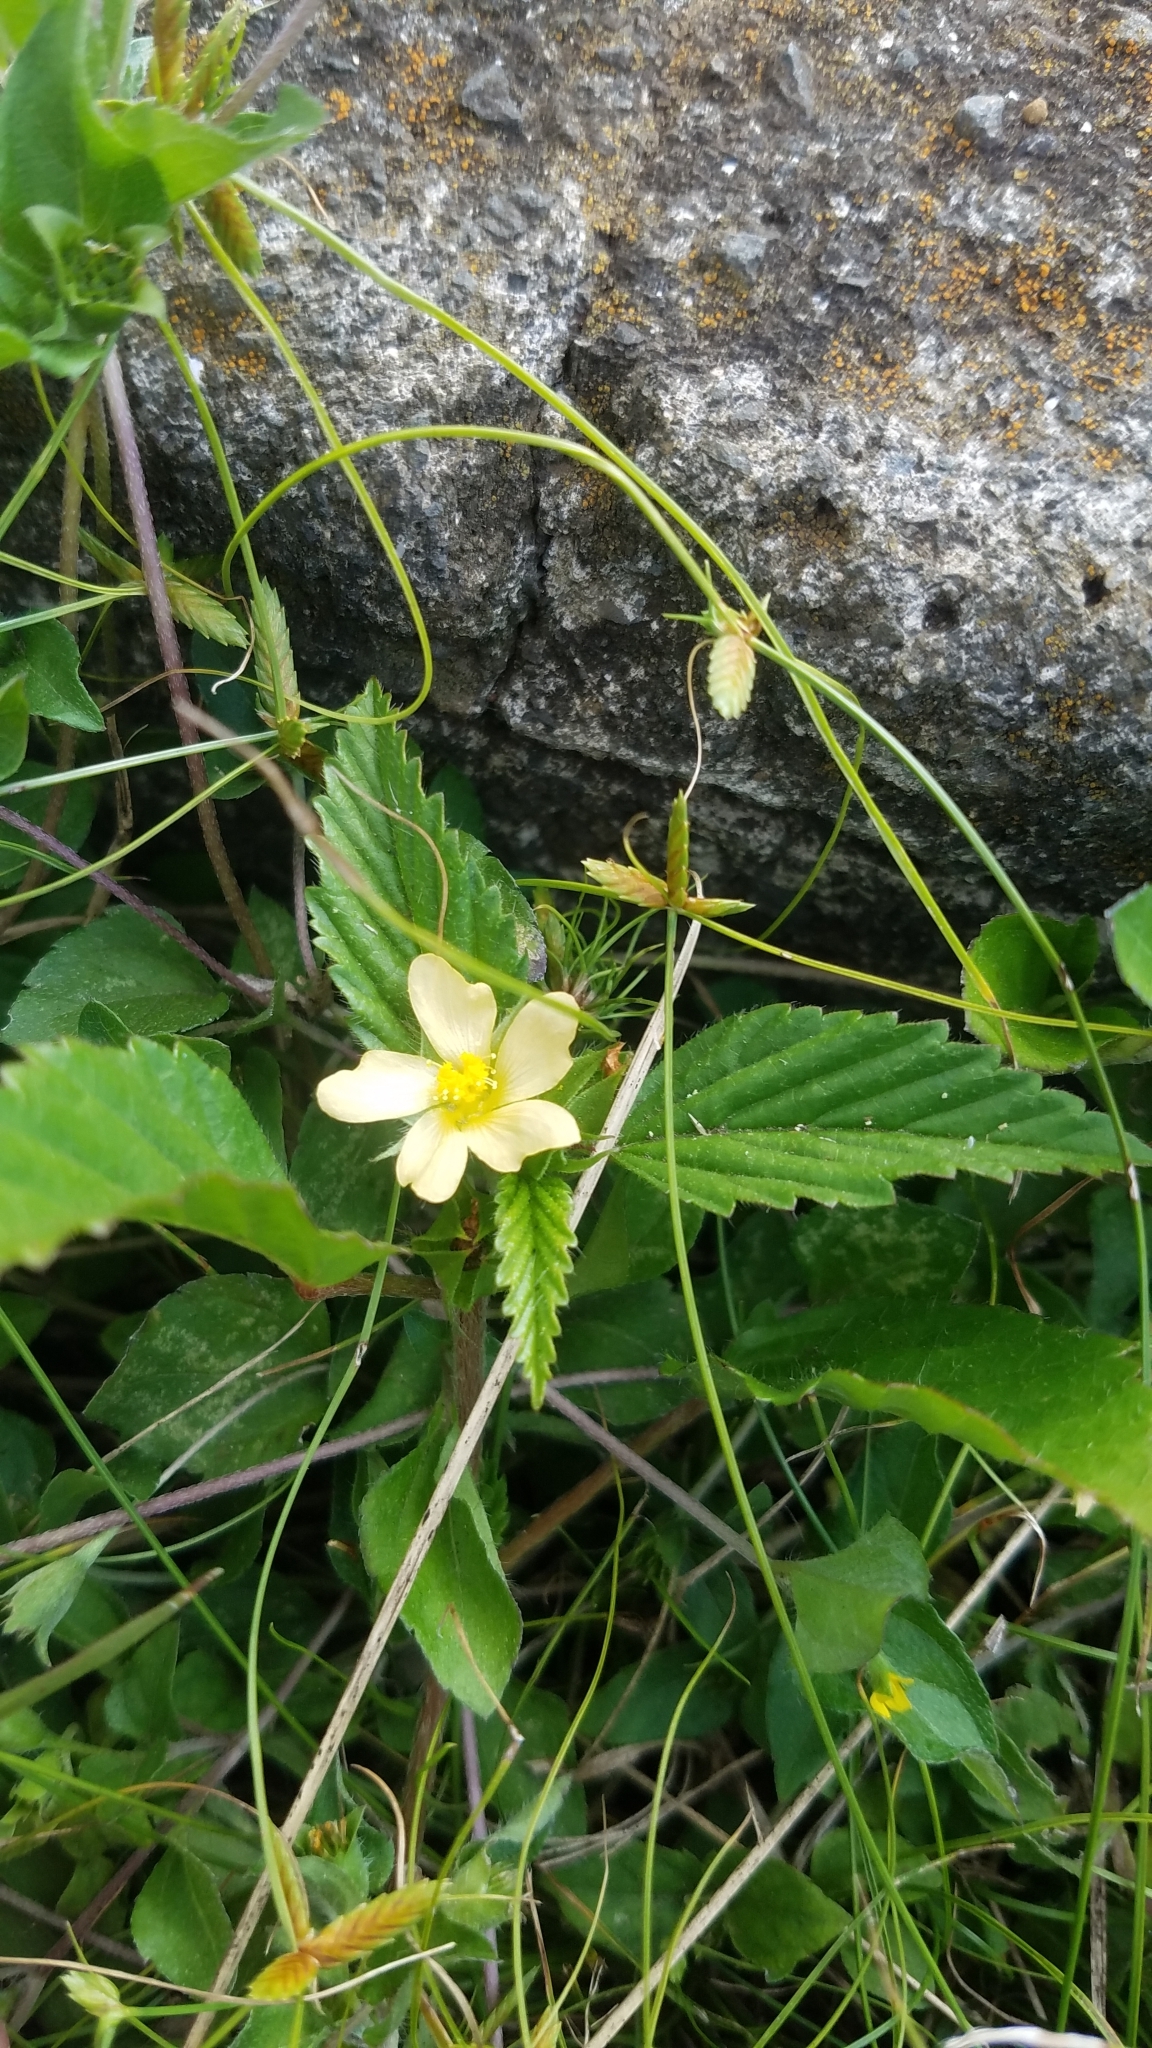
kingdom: Plantae
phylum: Tracheophyta
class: Magnoliopsida
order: Malvales
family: Malvaceae
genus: Malvastrum
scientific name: Malvastrum coromandelianum
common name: Threelobe false mallow
